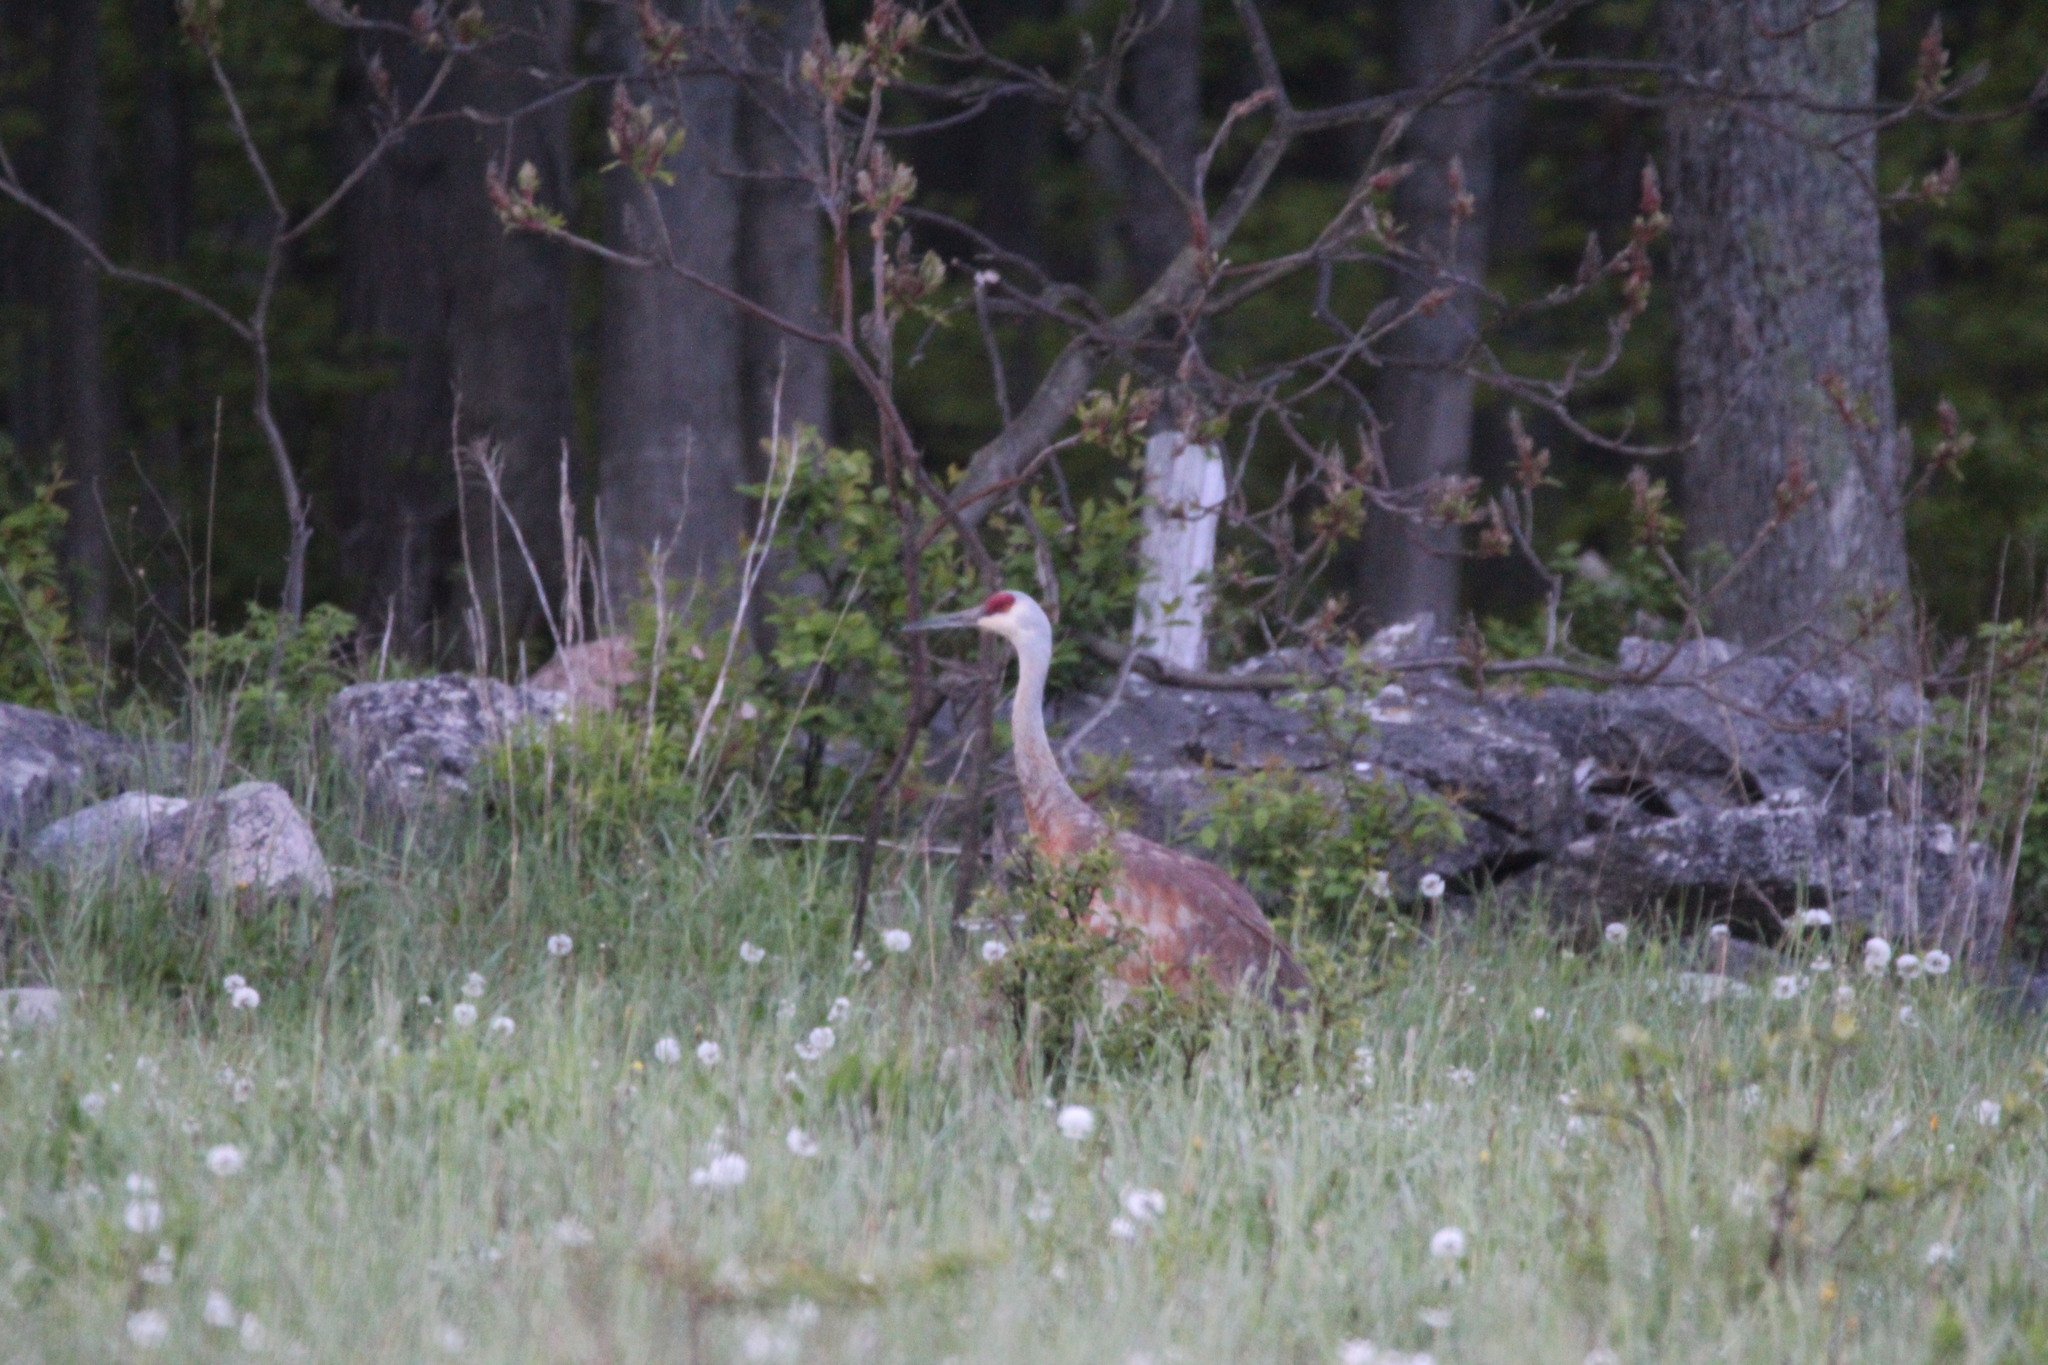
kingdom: Animalia
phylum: Chordata
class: Aves
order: Gruiformes
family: Gruidae
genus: Grus
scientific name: Grus canadensis
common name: Sandhill crane
